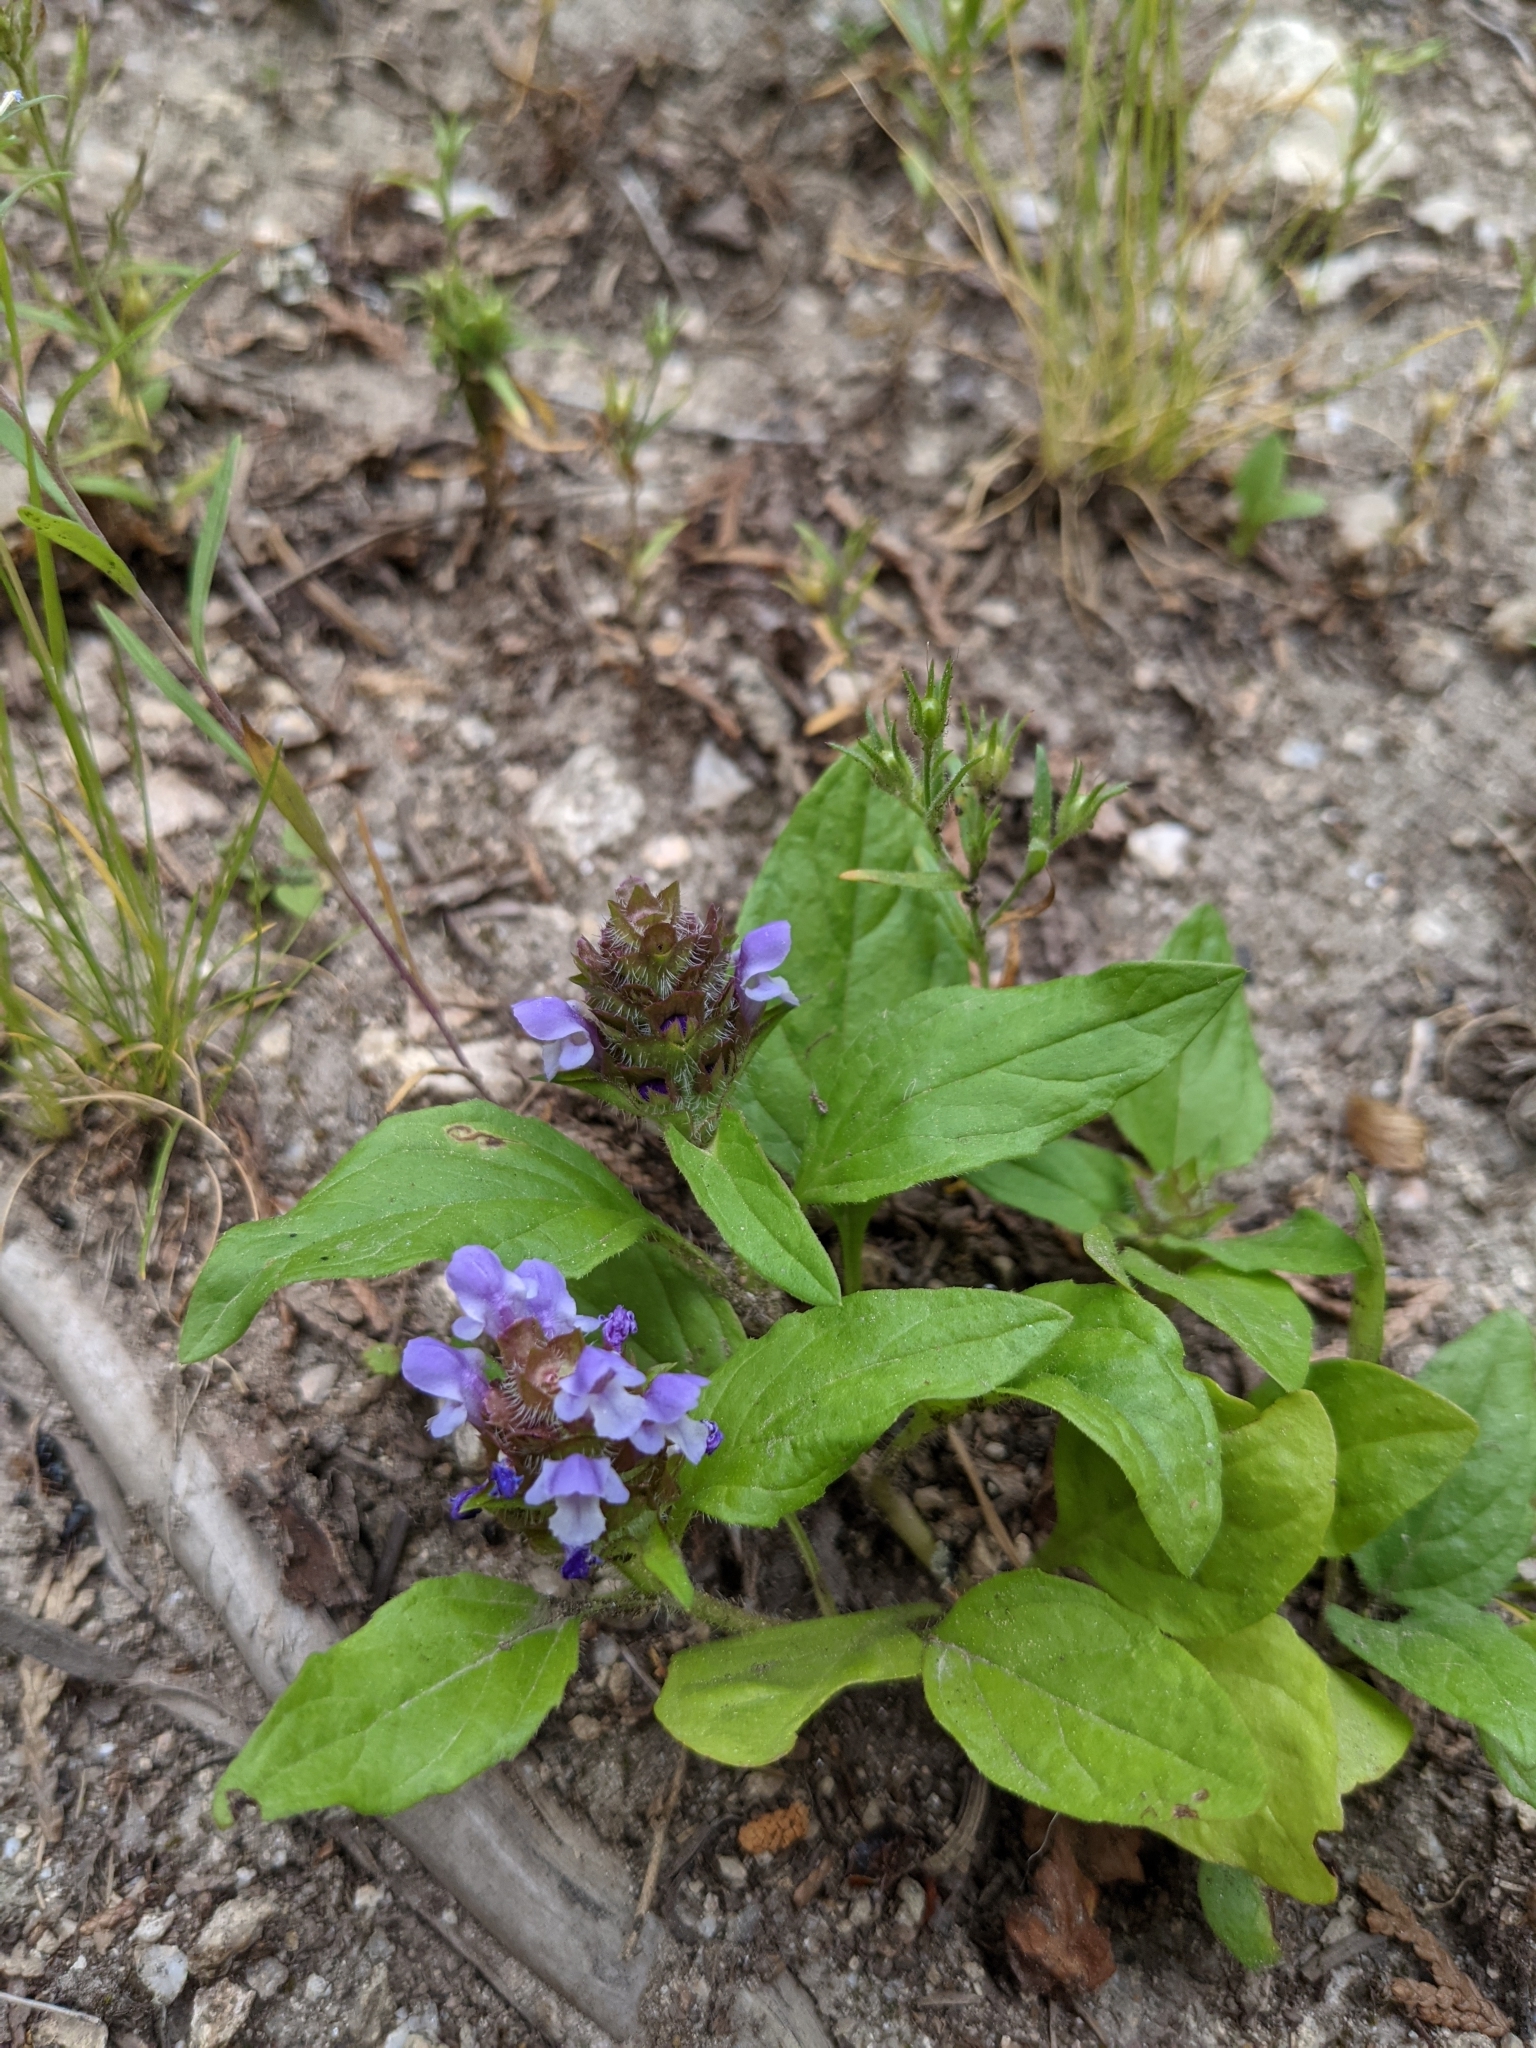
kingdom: Plantae
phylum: Tracheophyta
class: Magnoliopsida
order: Lamiales
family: Lamiaceae
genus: Prunella
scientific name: Prunella vulgaris
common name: Heal-all
